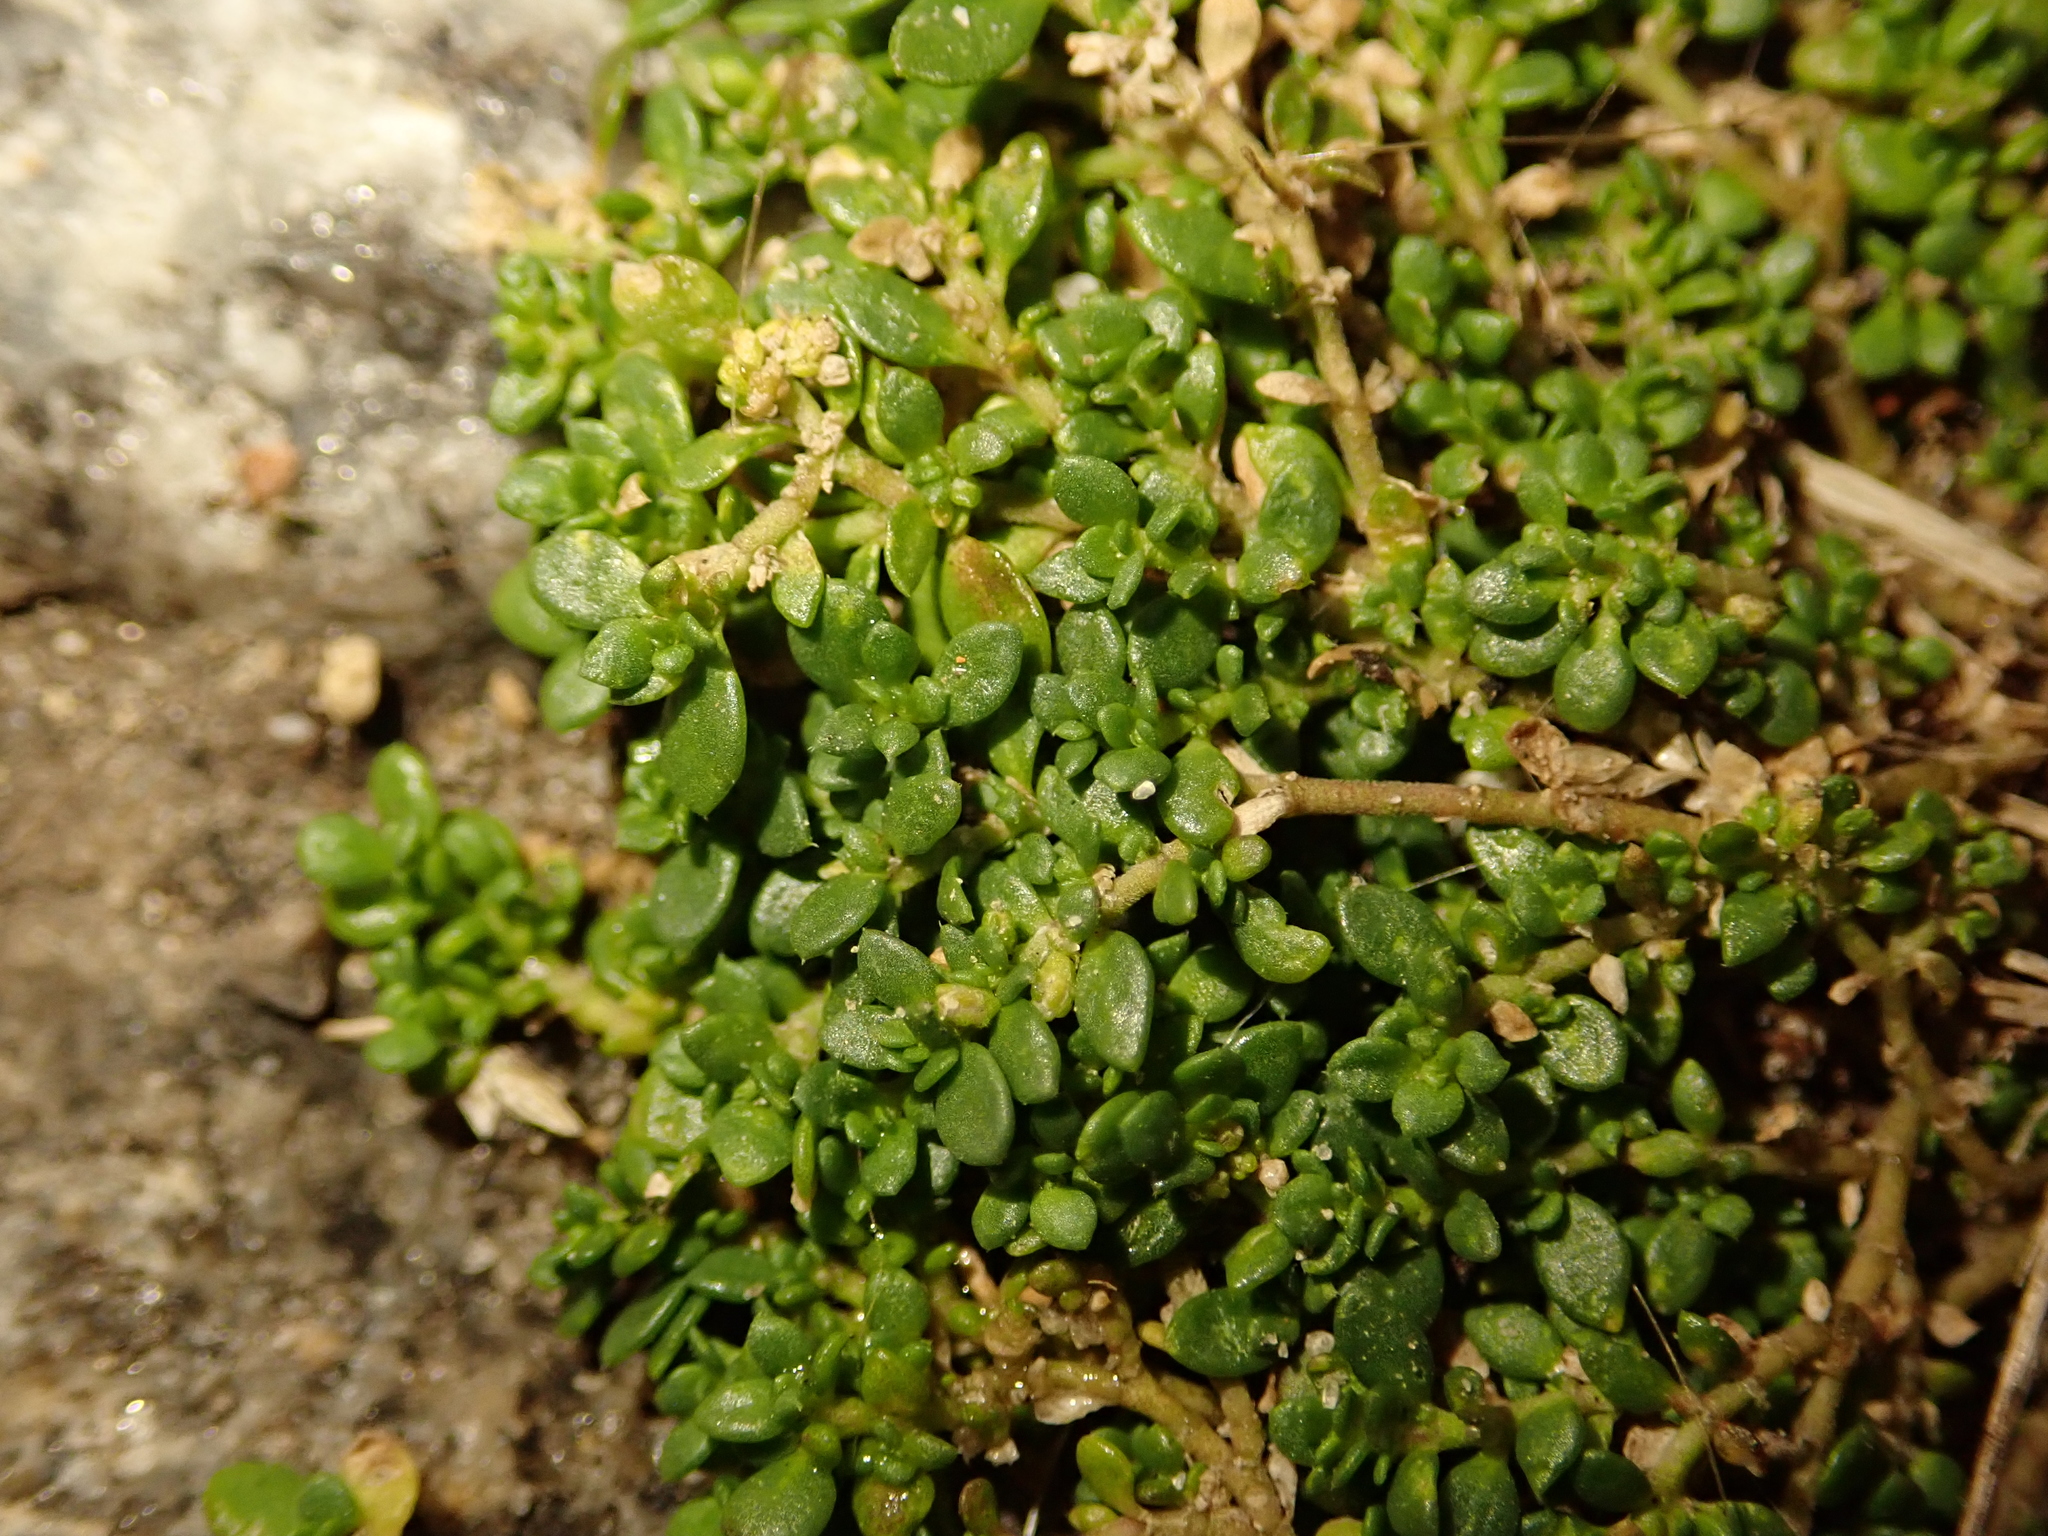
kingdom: Plantae
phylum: Tracheophyta
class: Magnoliopsida
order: Caryophyllales
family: Caryophyllaceae
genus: Herniaria
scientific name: Herniaria glabra
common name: Smooth rupturewort
